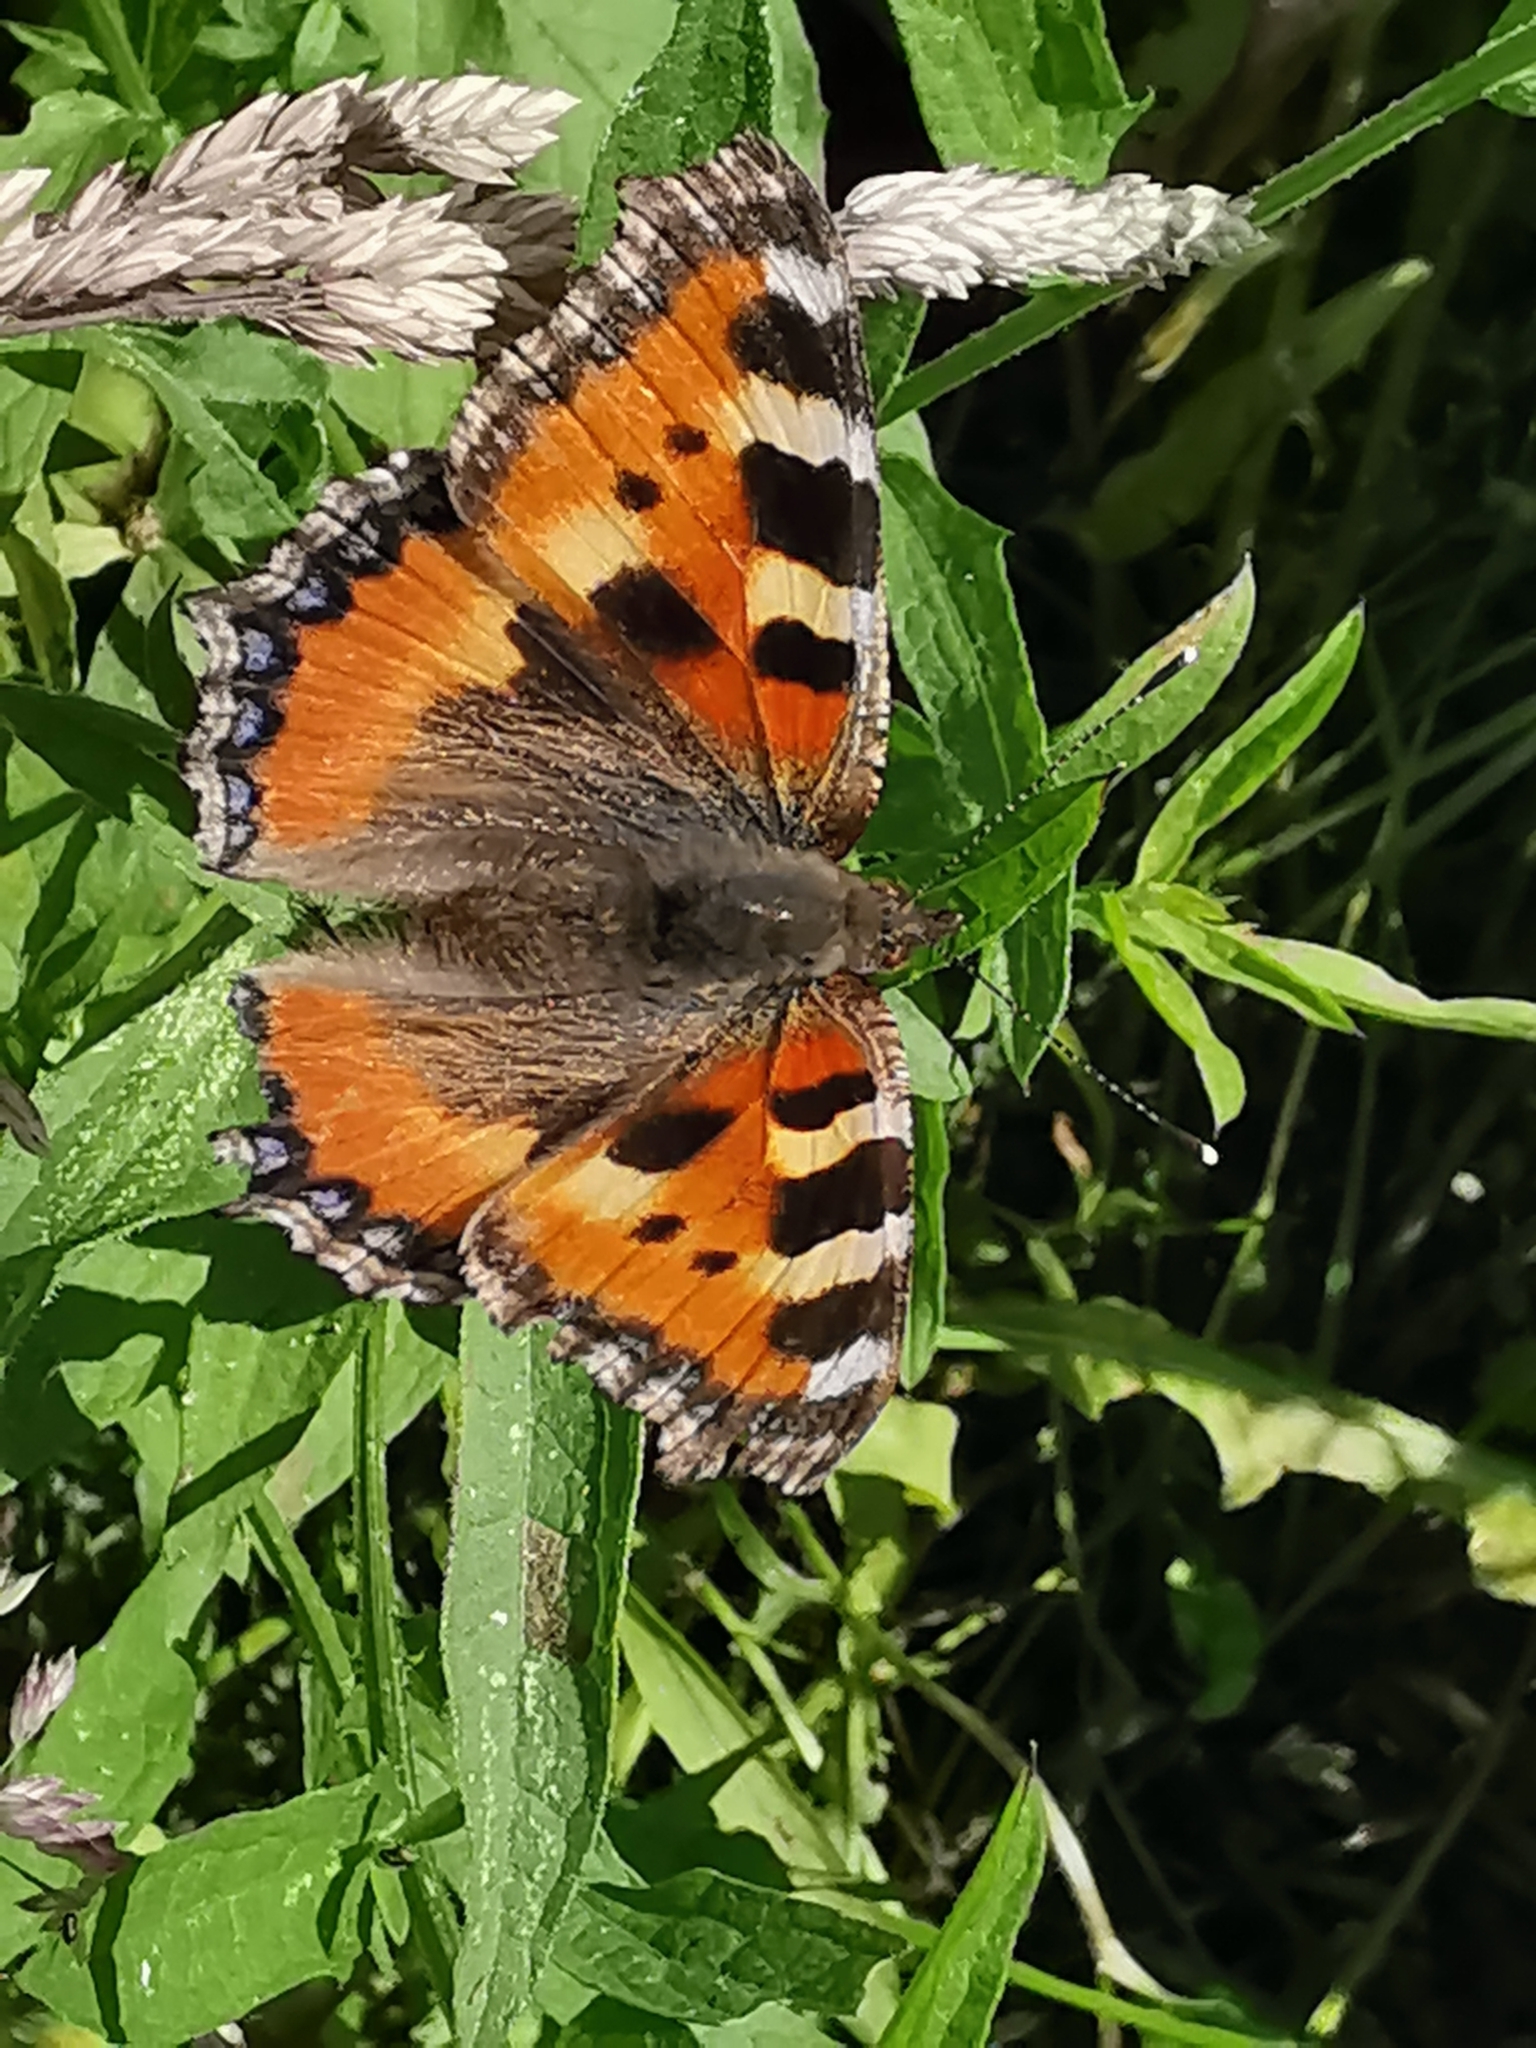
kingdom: Animalia
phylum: Arthropoda
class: Insecta
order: Lepidoptera
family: Nymphalidae
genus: Aglais
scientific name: Aglais urticae
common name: Small tortoiseshell
